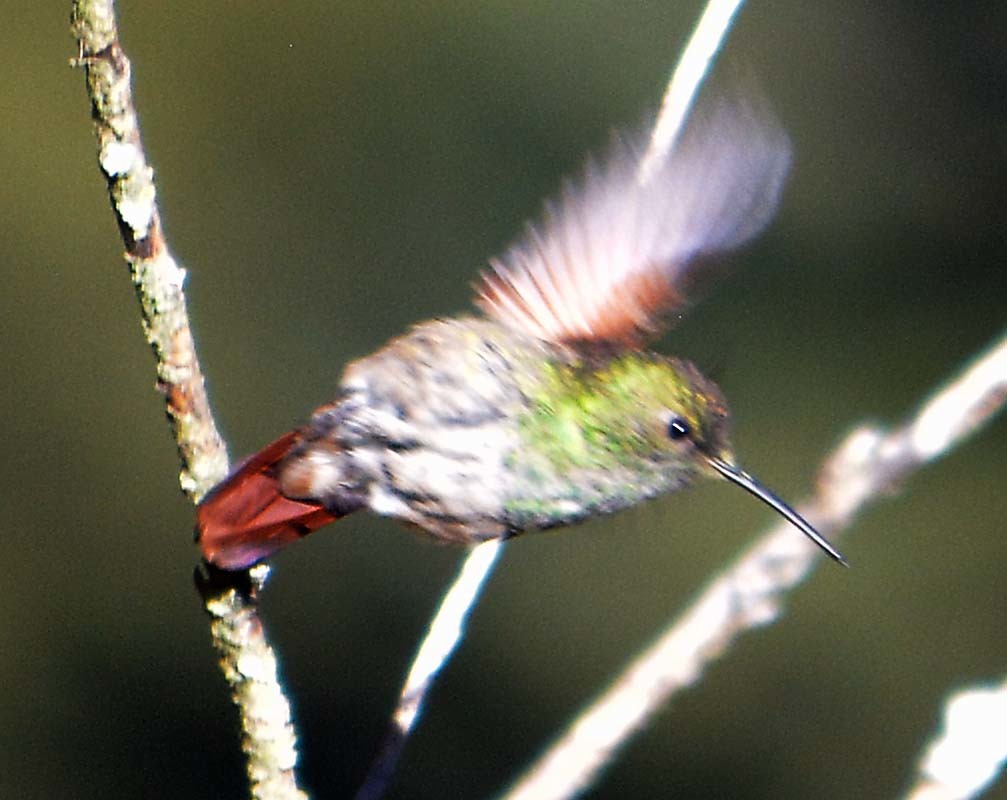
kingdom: Animalia
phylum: Chordata
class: Aves
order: Apodiformes
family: Trochilidae
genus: Saucerottia
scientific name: Saucerottia beryllina
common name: Berylline hummingbird
